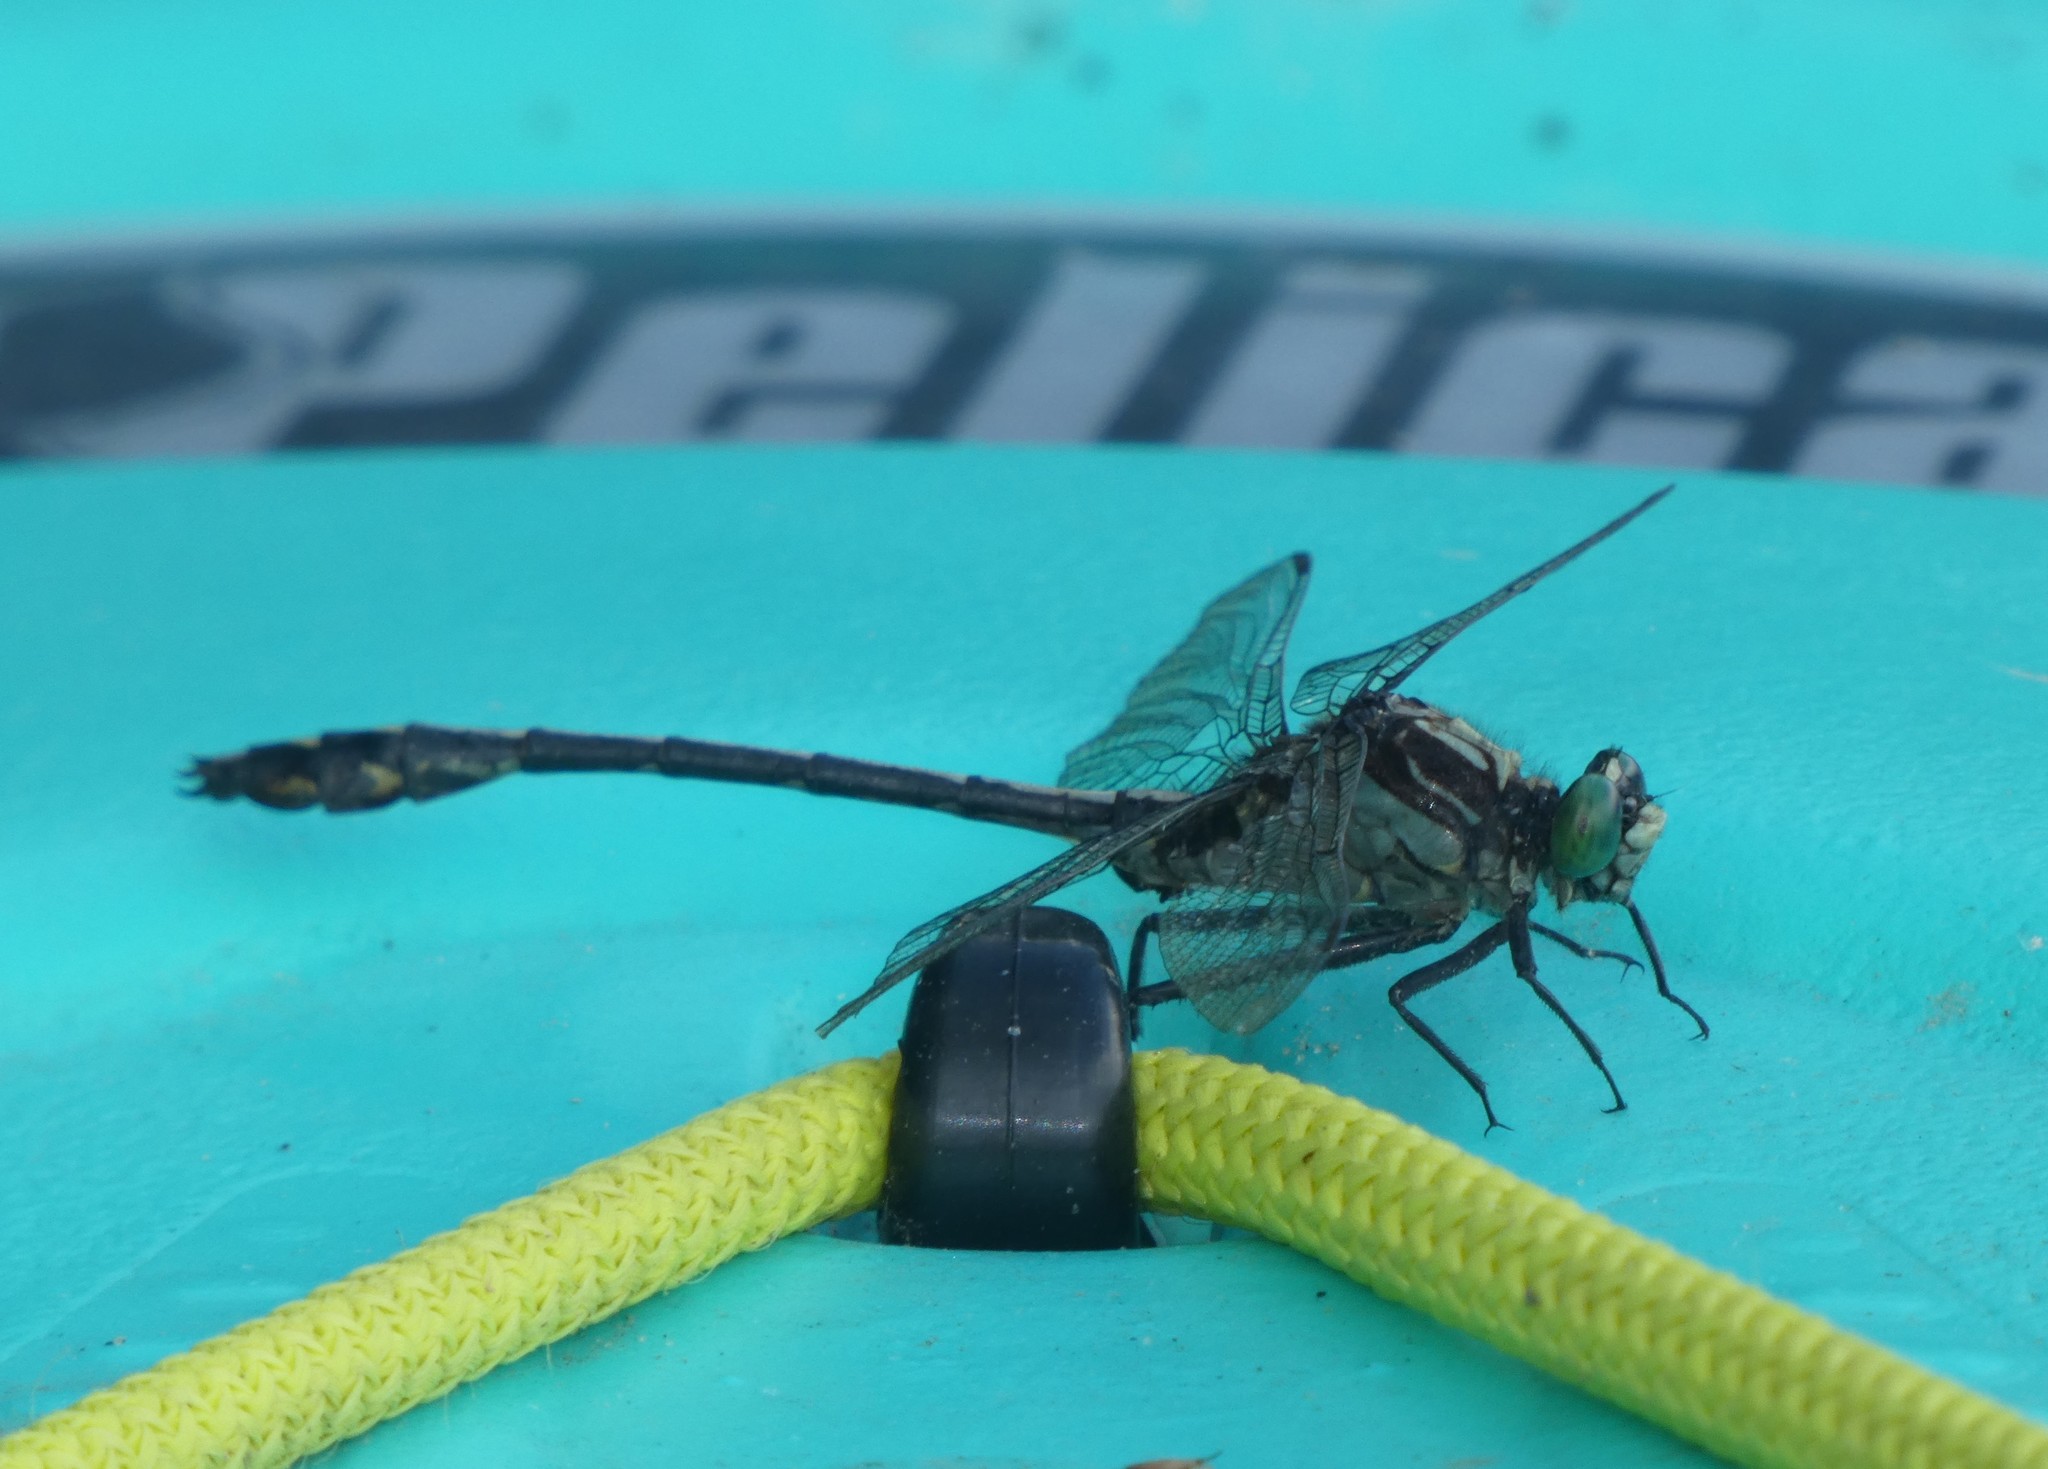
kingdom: Animalia
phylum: Arthropoda
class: Insecta
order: Odonata
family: Gomphidae
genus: Dromogomphus
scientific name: Dromogomphus spinosus
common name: Black-shouldered spinyleg
